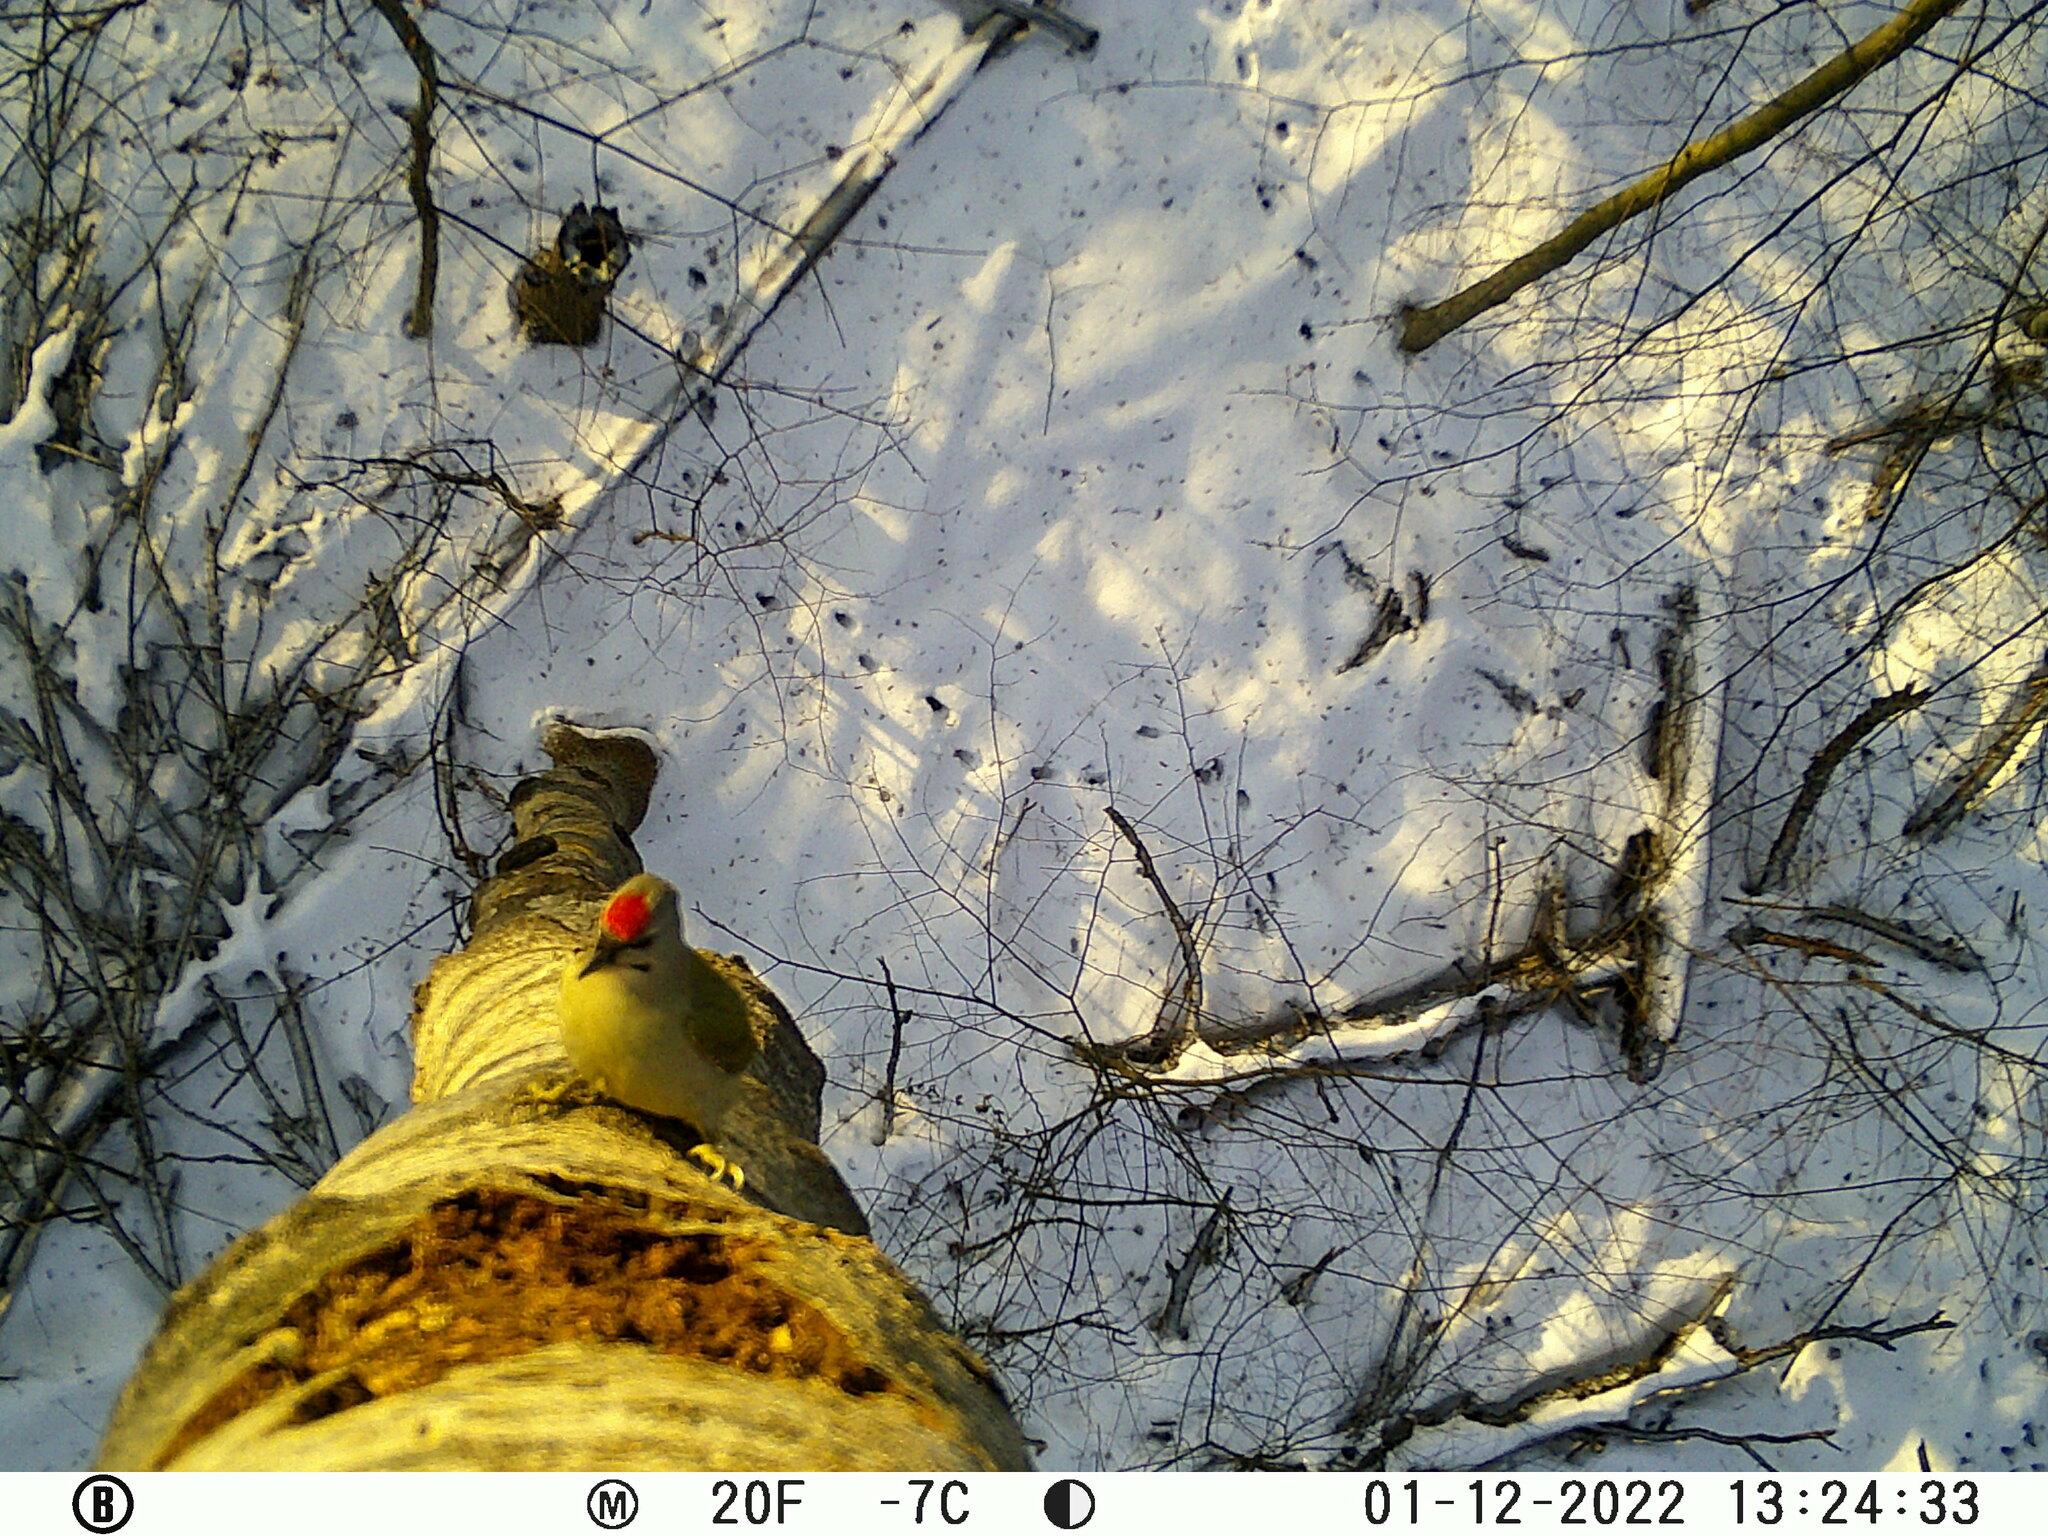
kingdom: Animalia
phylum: Chordata
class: Aves
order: Piciformes
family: Picidae
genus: Picus
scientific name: Picus canus
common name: Grey-headed woodpecker
